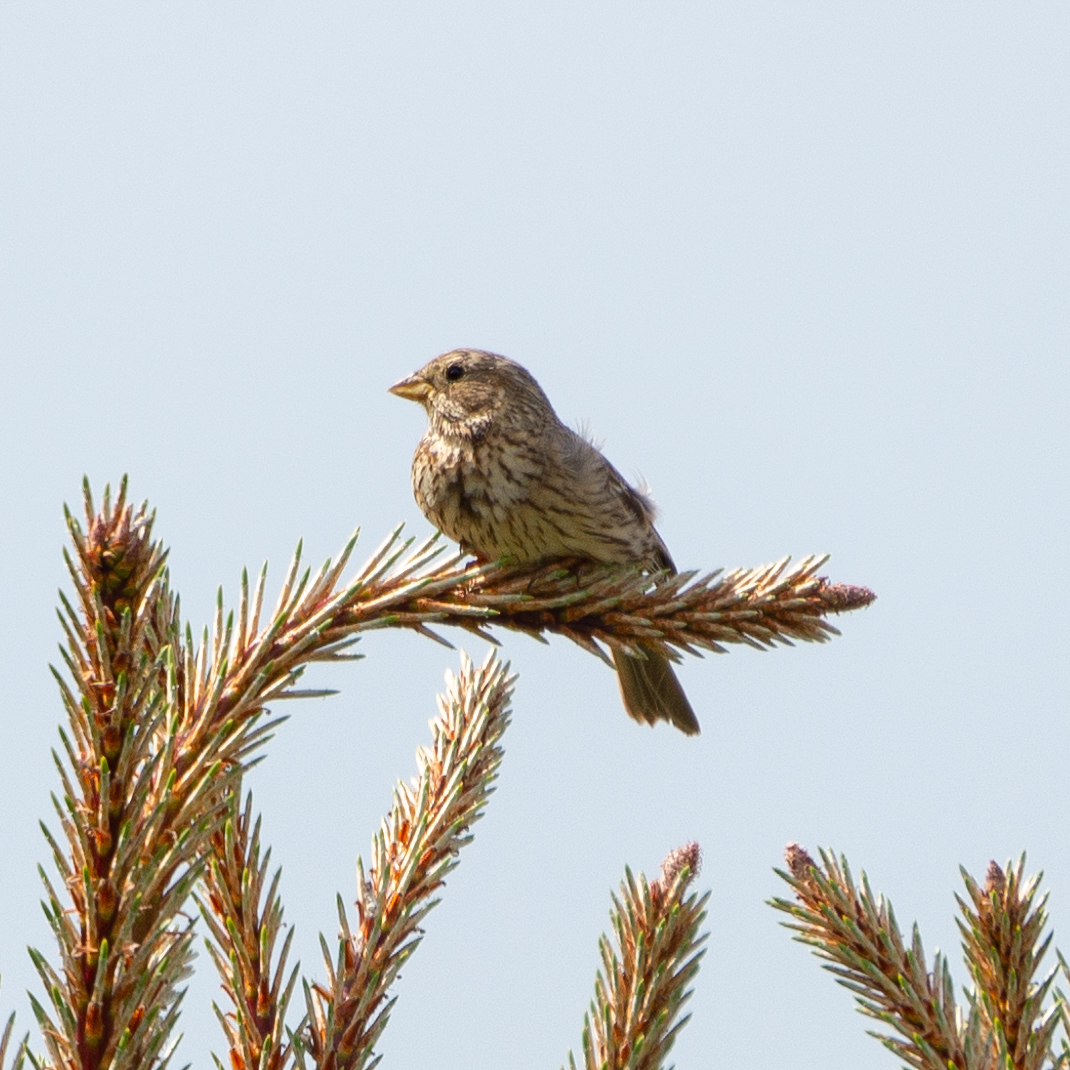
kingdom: Animalia
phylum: Chordata
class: Aves
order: Passeriformes
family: Emberizidae
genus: Emberiza
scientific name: Emberiza calandra
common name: Corn bunting
